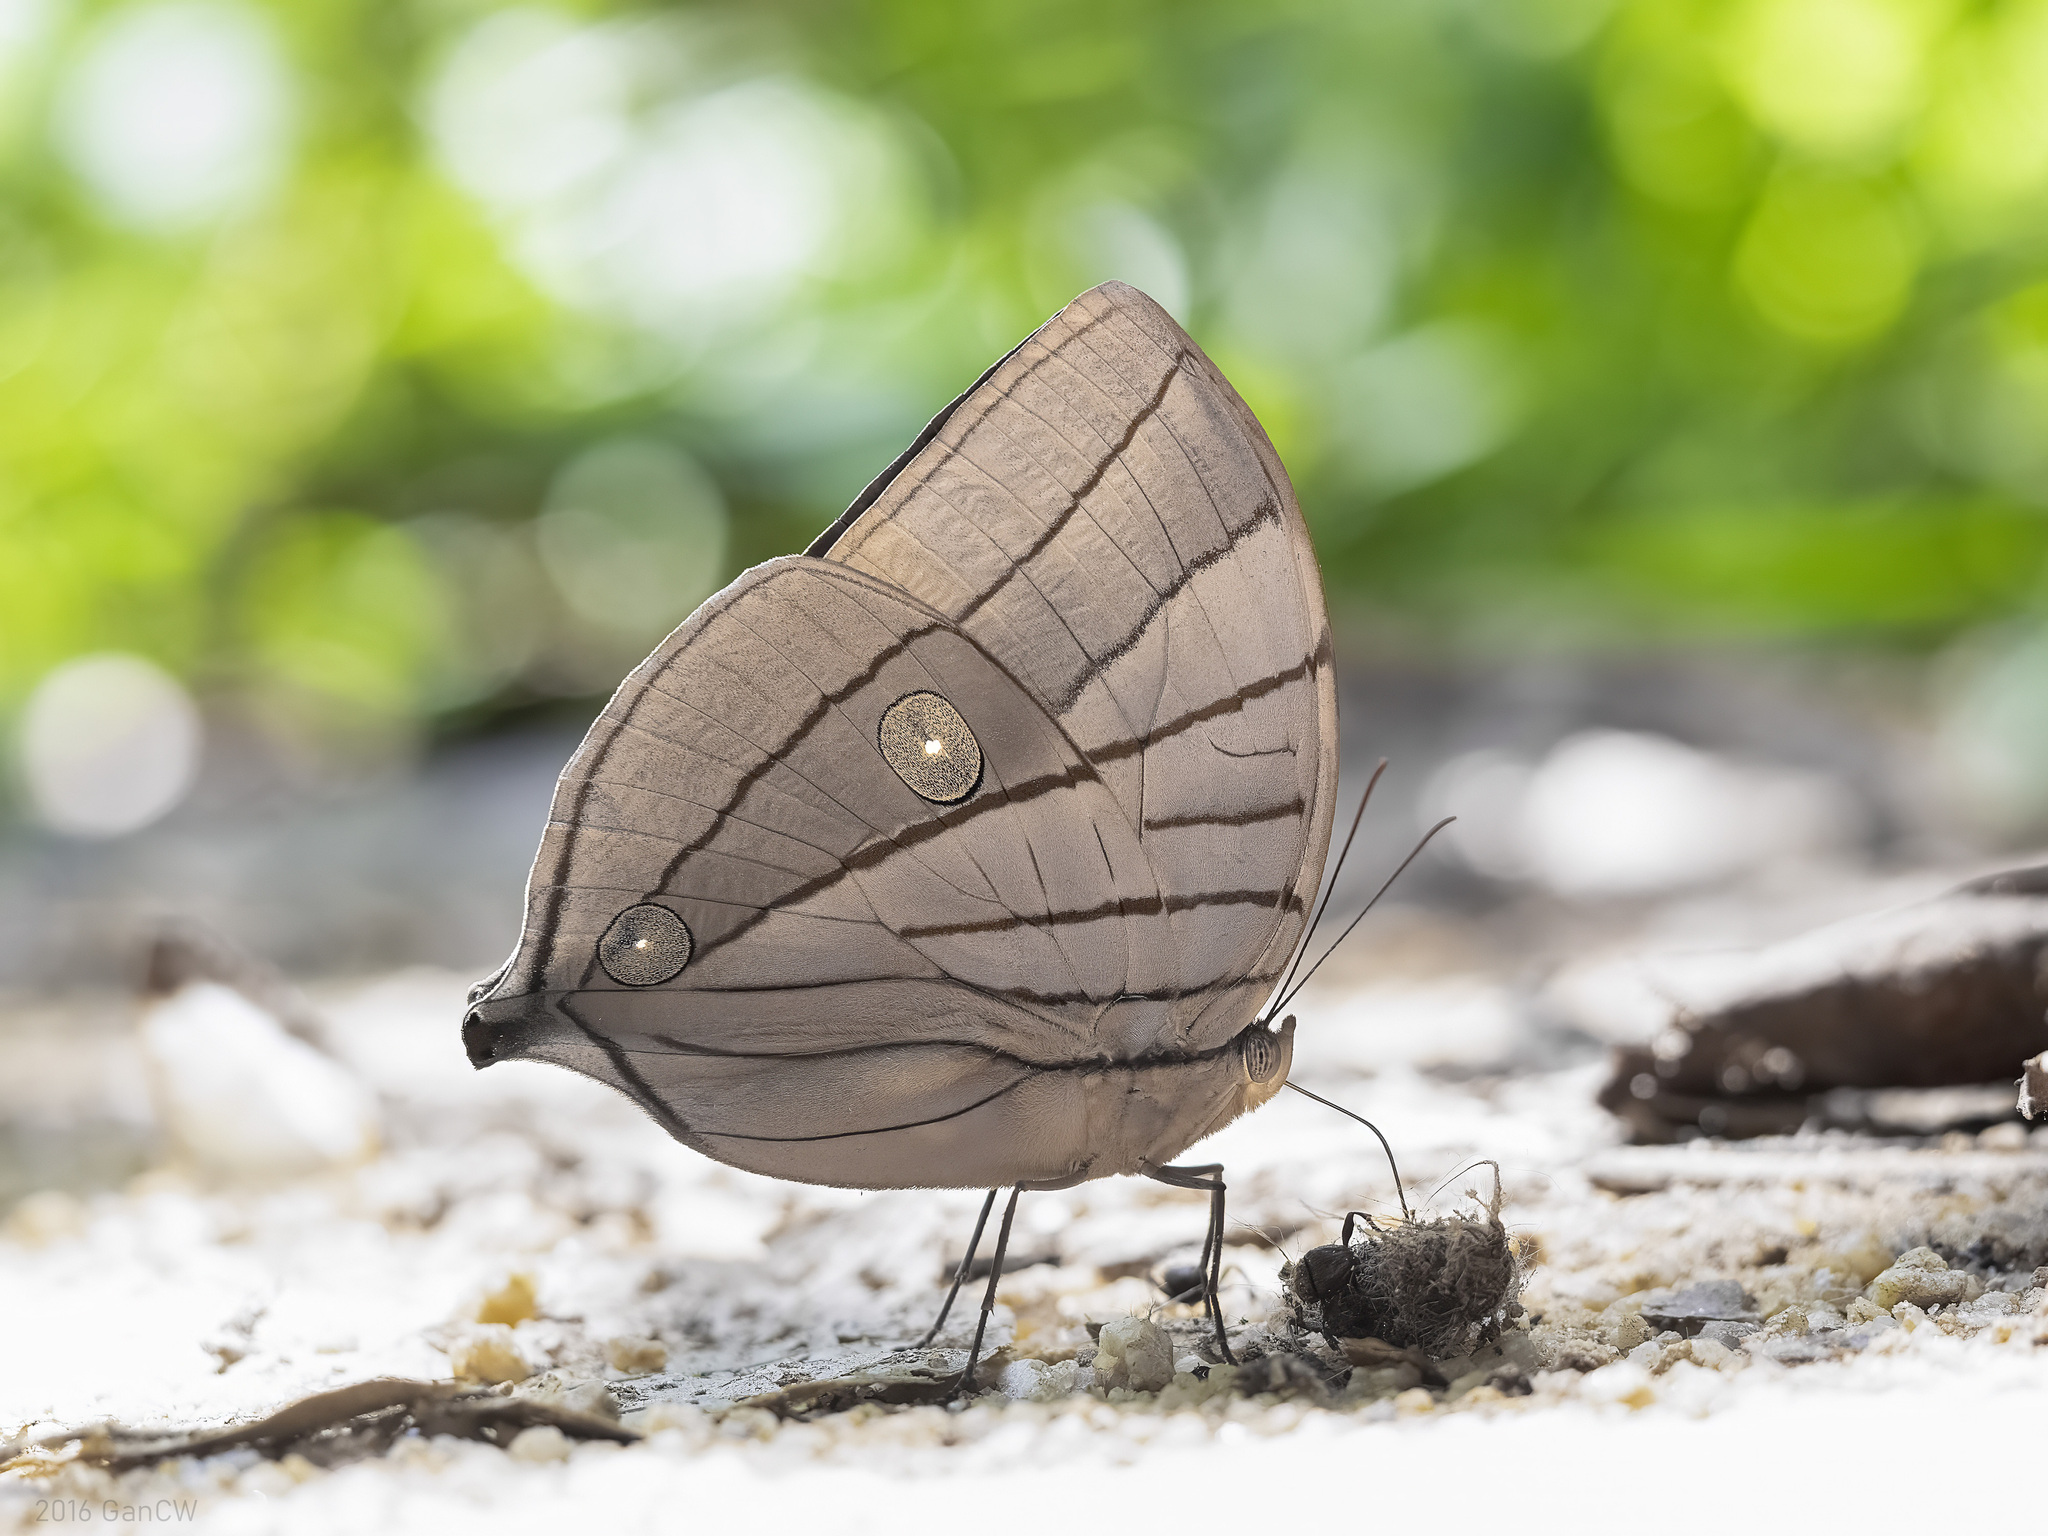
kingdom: Animalia
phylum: Arthropoda
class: Insecta
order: Lepidoptera
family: Nymphalidae
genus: Amathuxidia
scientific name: Amathuxidia amythaon
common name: Koh-i-noor
